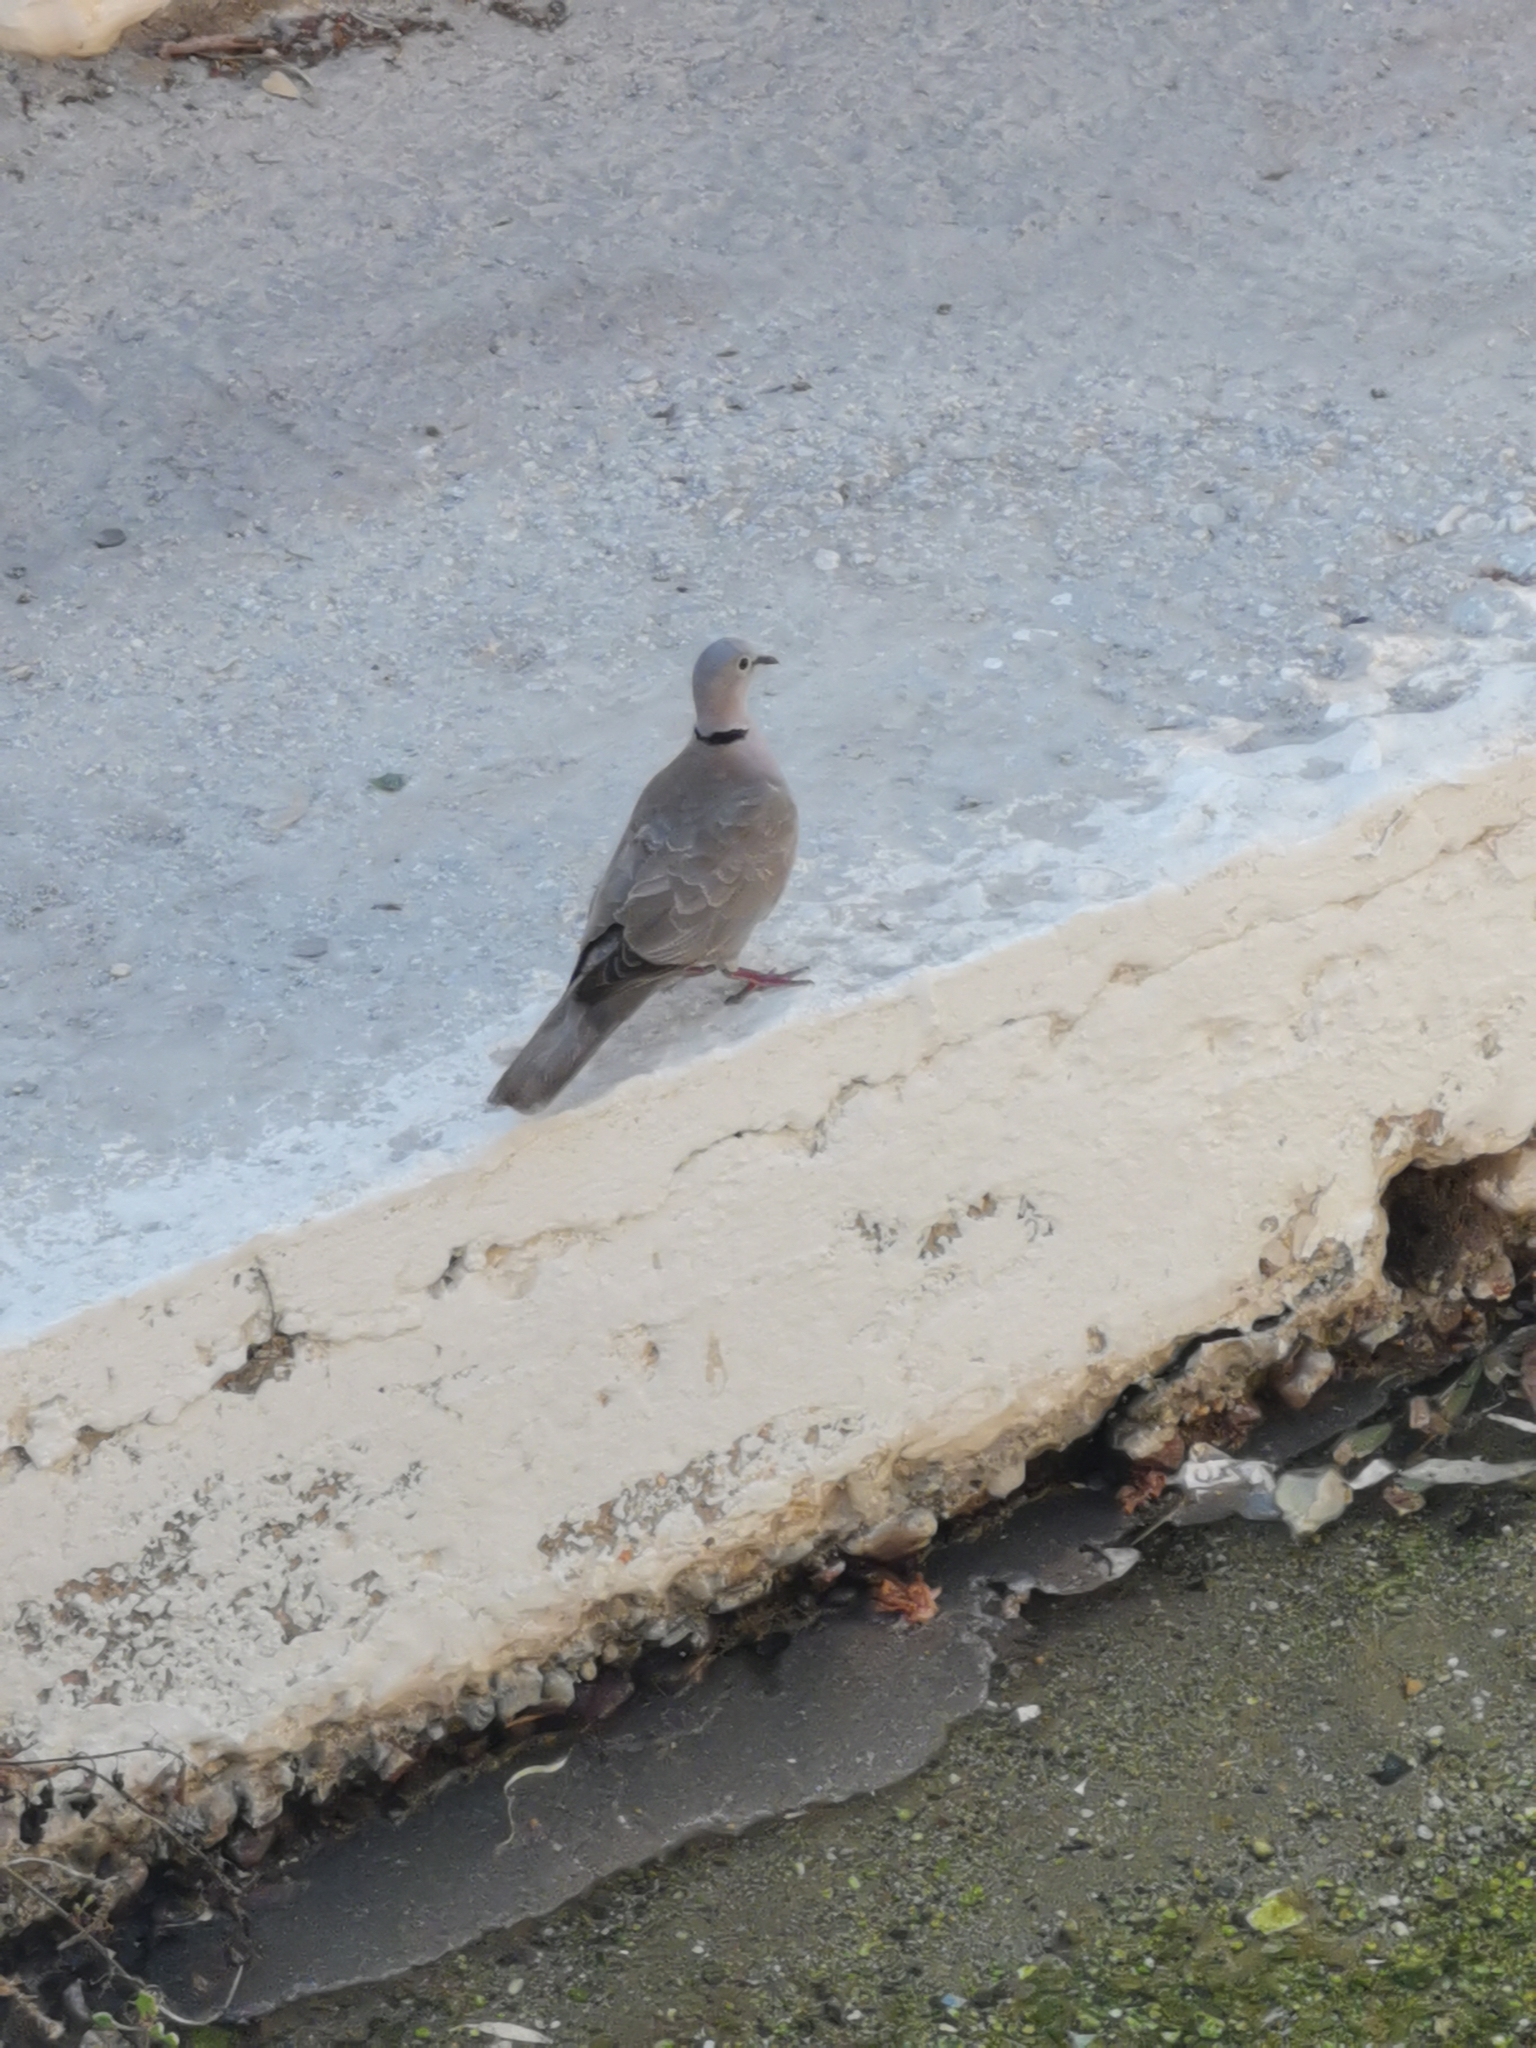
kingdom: Animalia
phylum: Chordata
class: Aves
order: Columbiformes
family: Columbidae
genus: Streptopelia
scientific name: Streptopelia decaocto
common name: Eurasian collared dove
